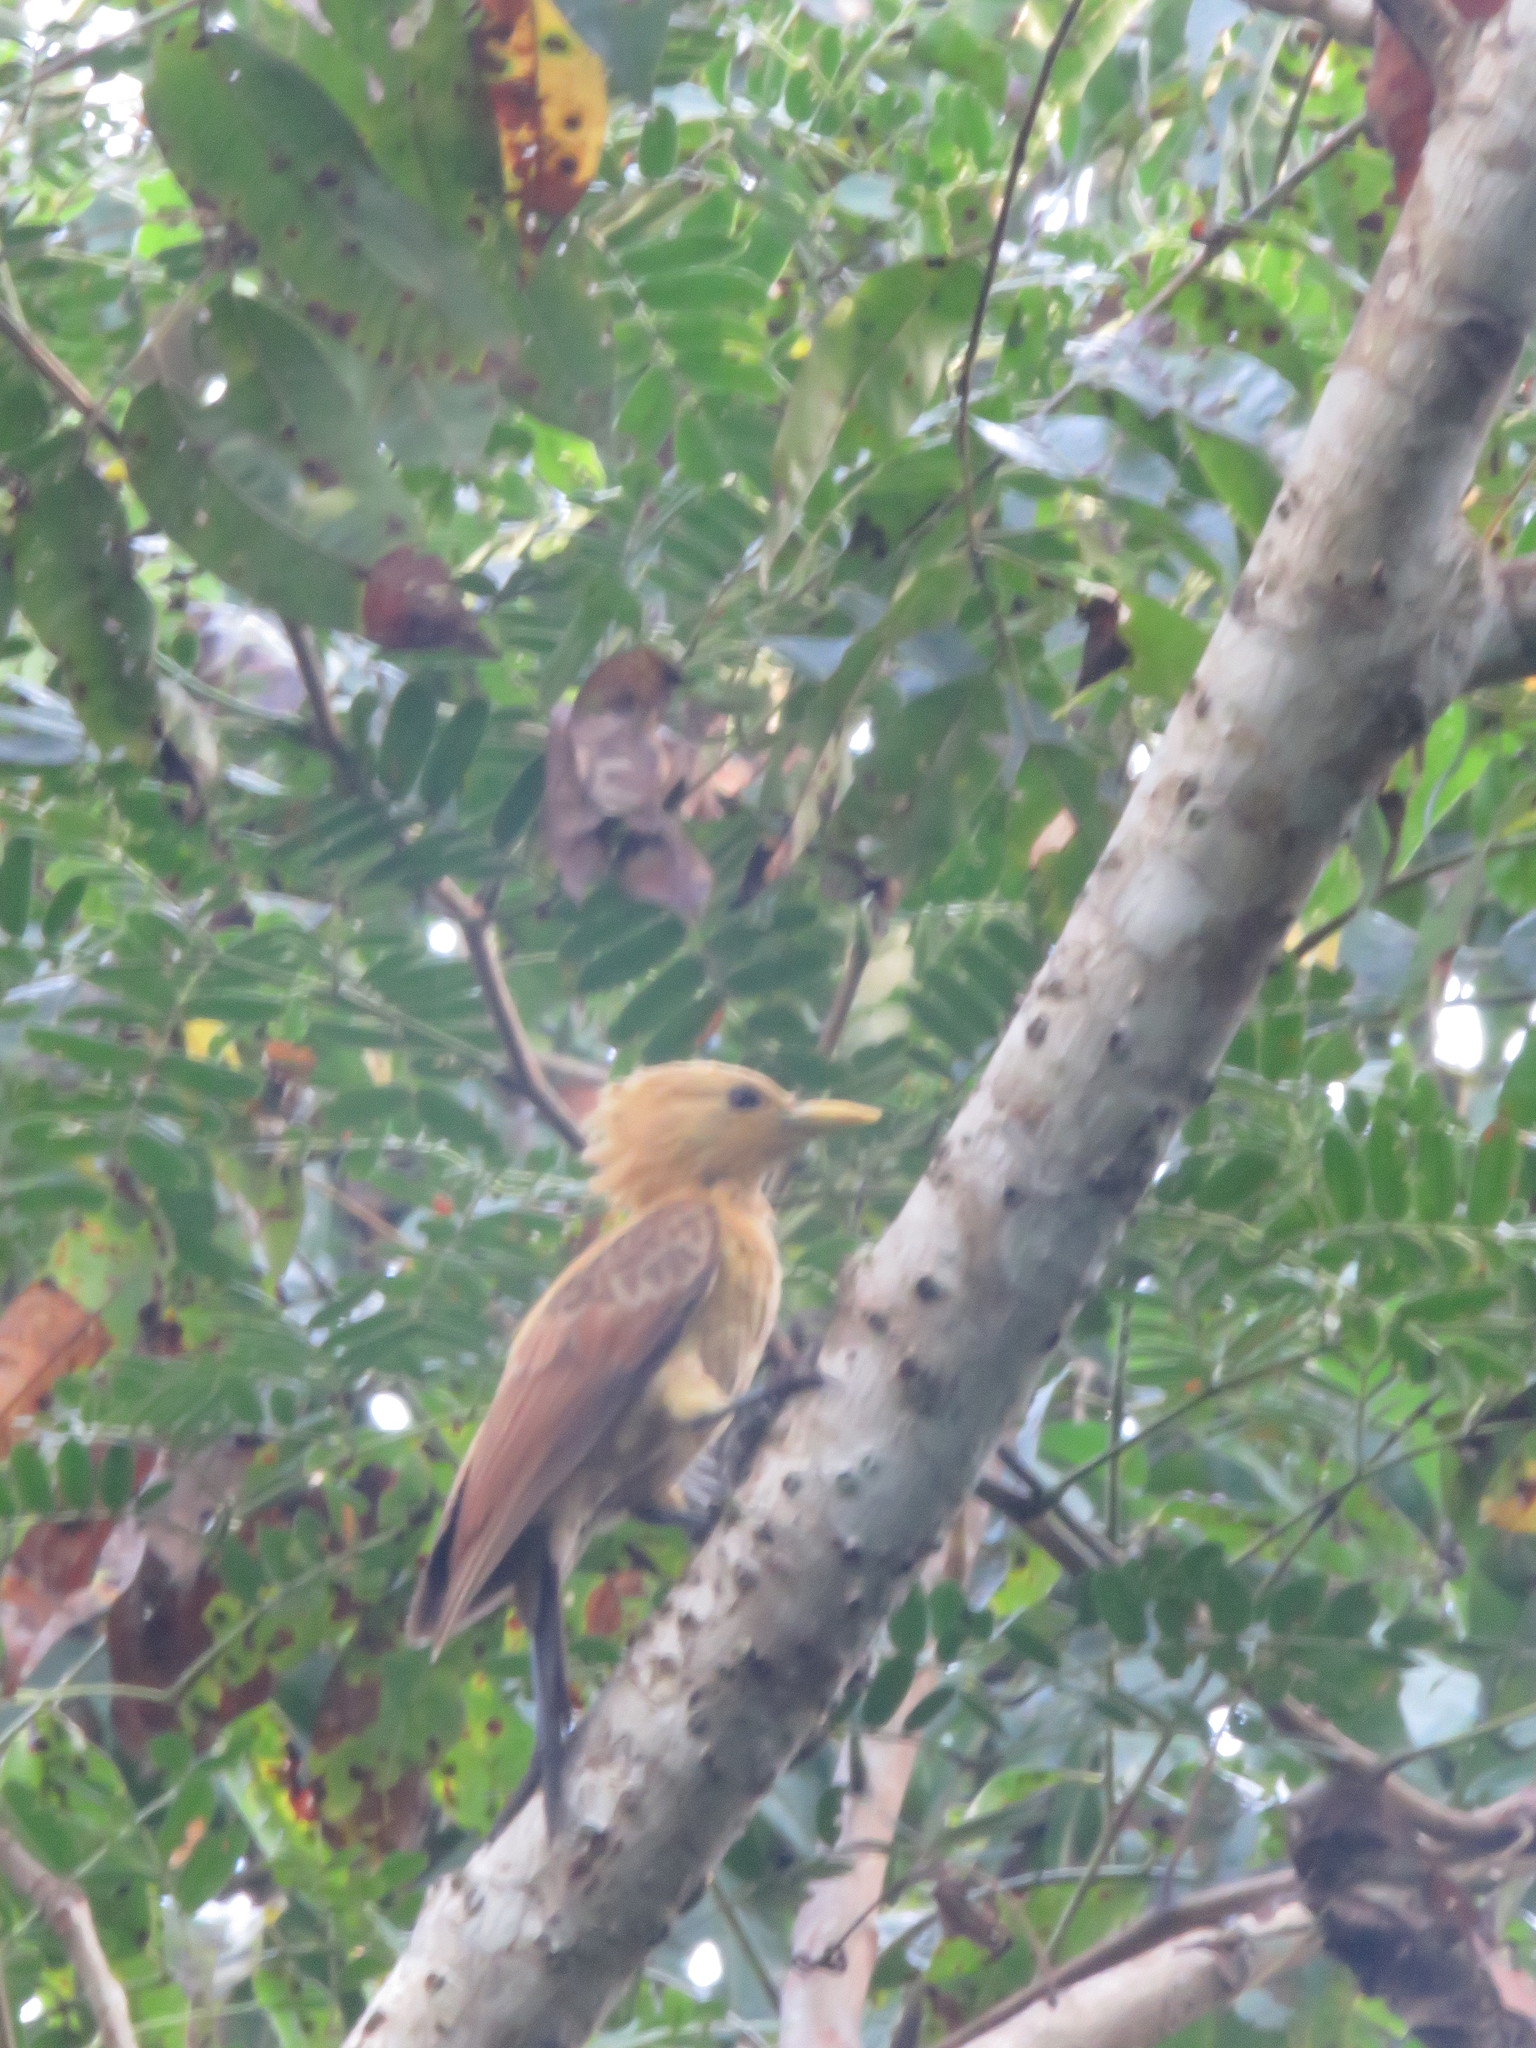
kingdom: Animalia
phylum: Chordata
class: Aves
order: Piciformes
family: Picidae
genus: Celeus
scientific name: Celeus flavus
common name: Cream-colored woodpecker
